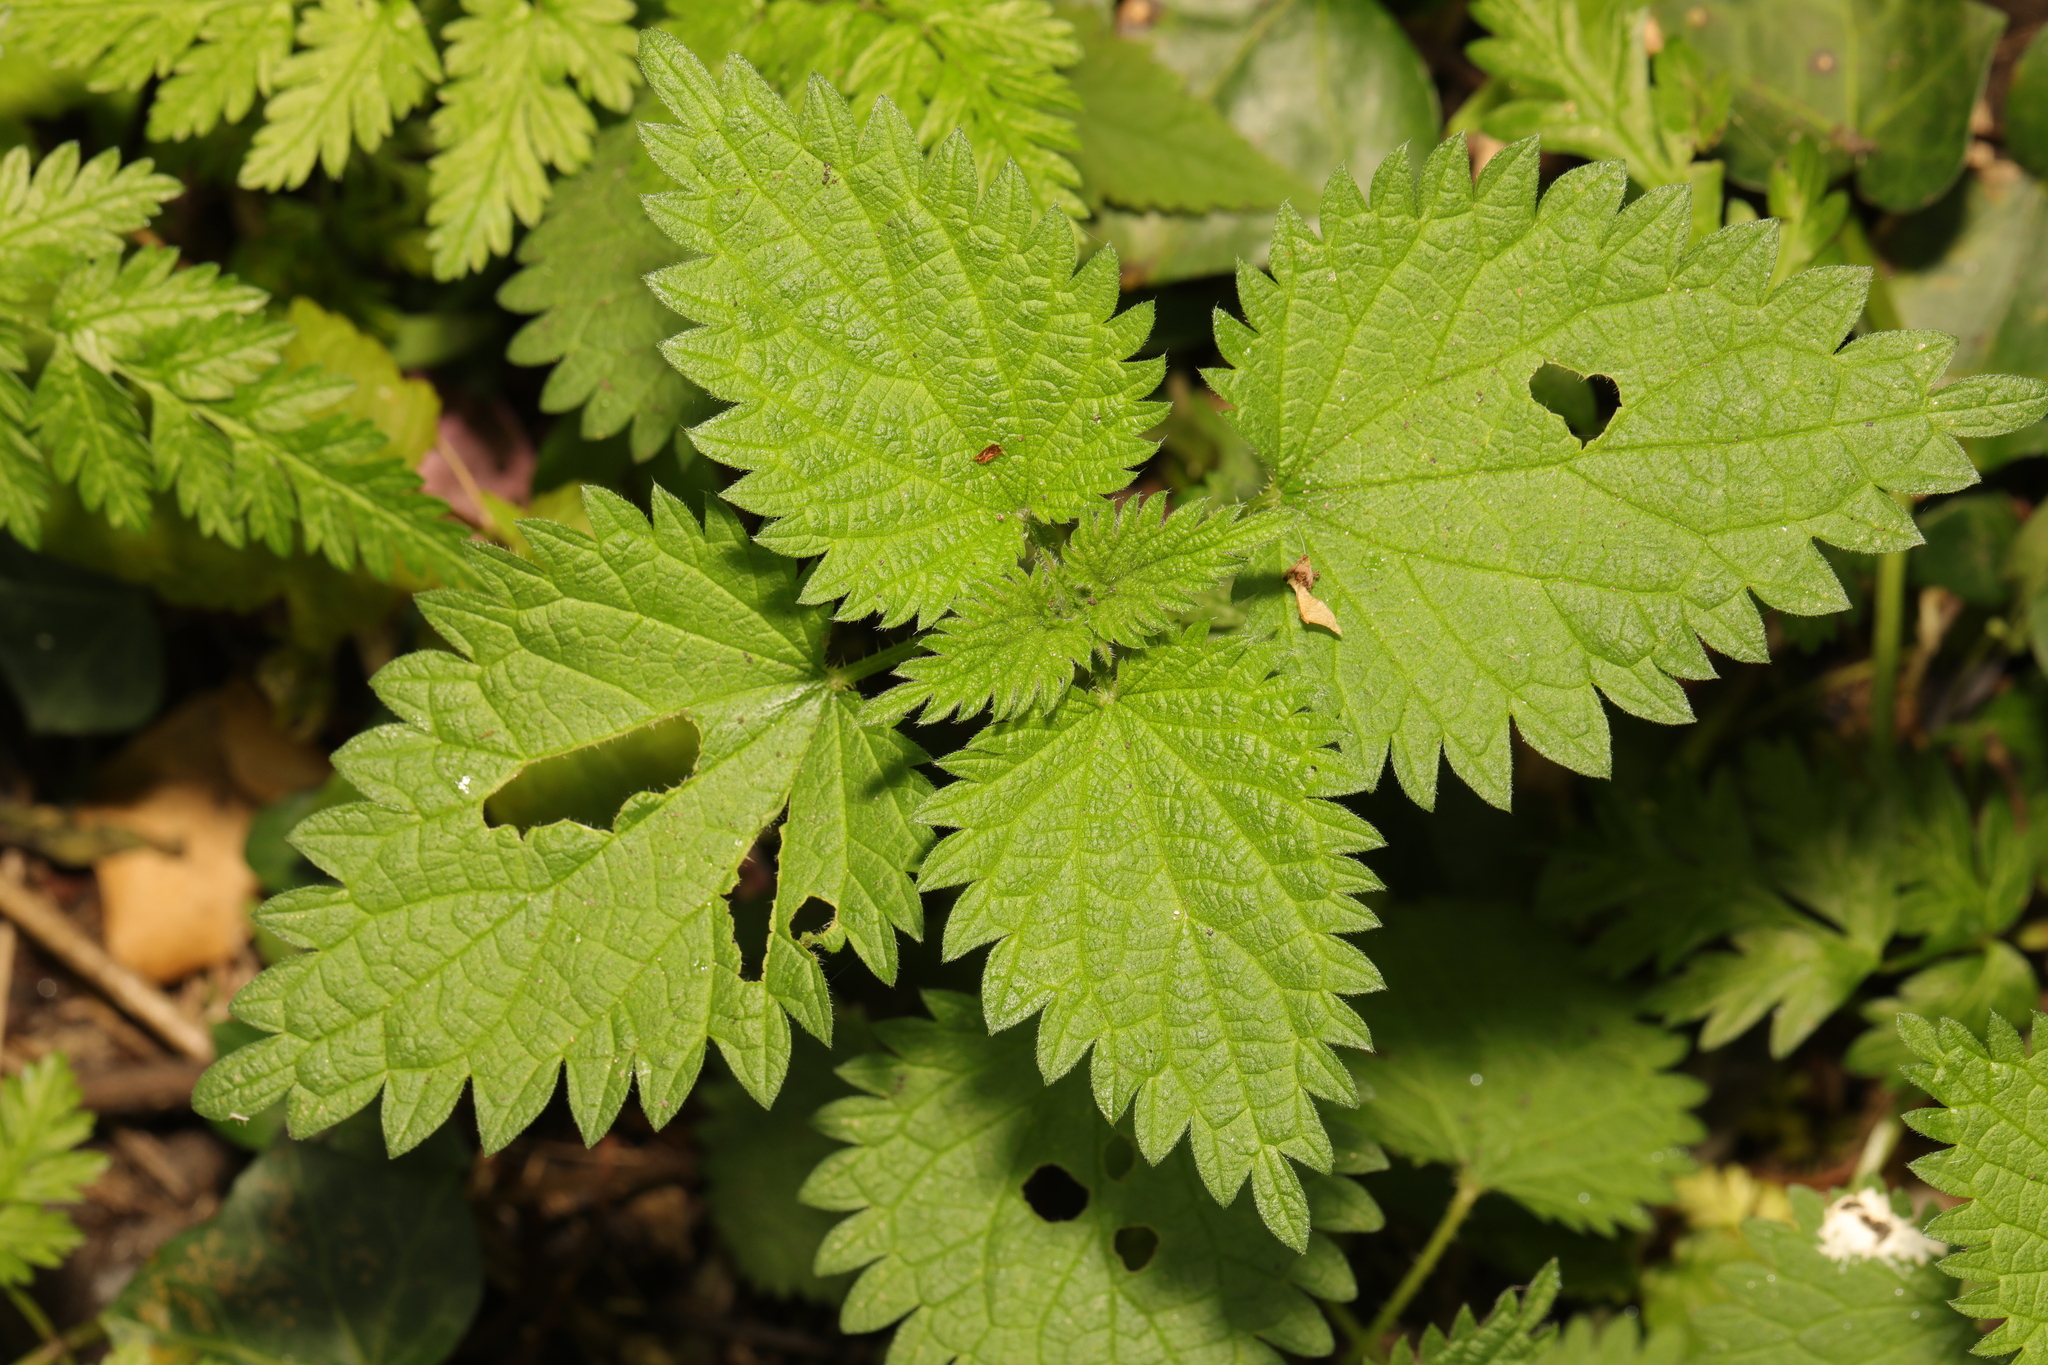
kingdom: Plantae
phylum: Tracheophyta
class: Magnoliopsida
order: Rosales
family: Urticaceae
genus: Urtica
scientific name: Urtica dioica
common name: Common nettle
